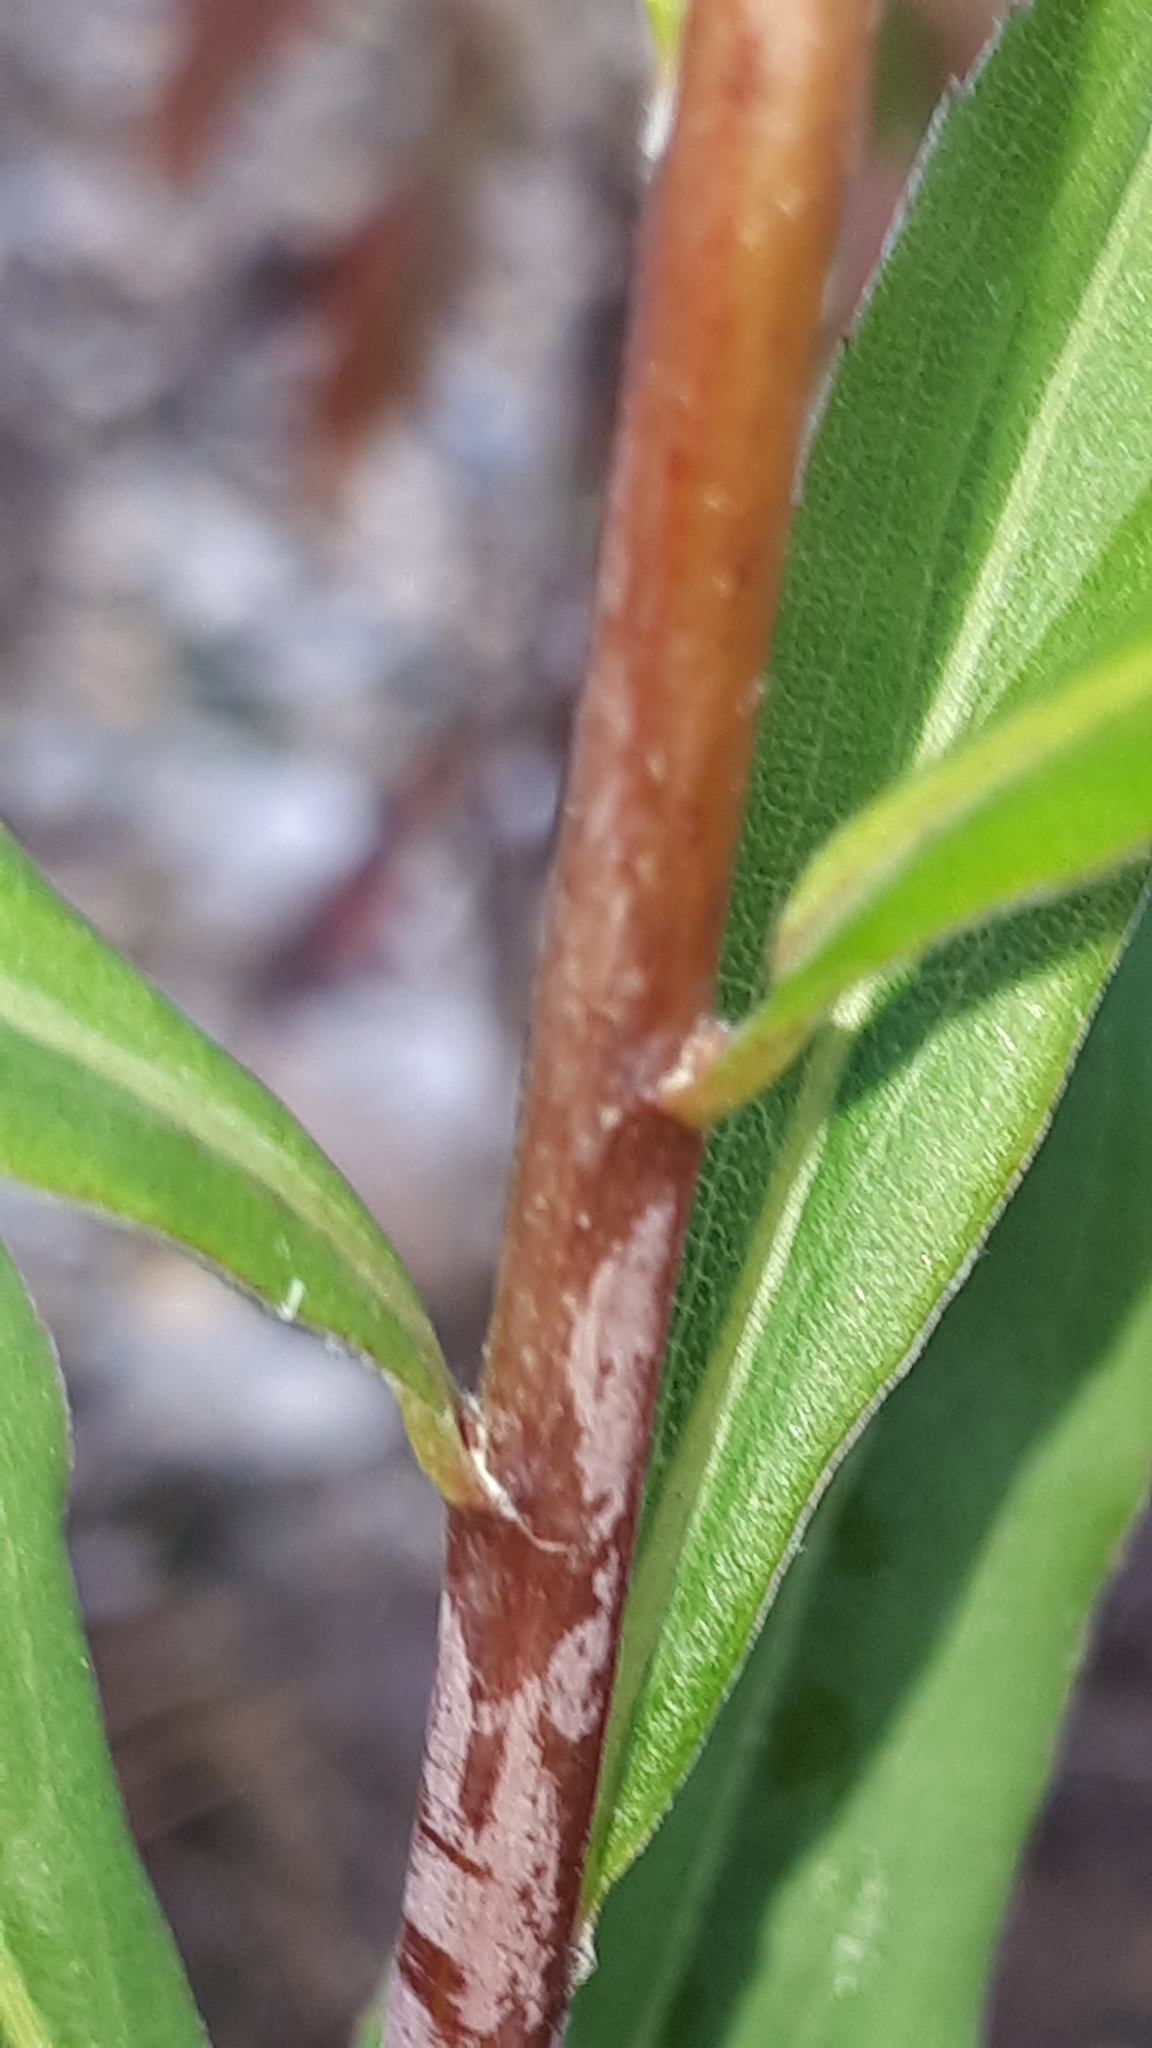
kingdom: Plantae
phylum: Tracheophyta
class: Magnoliopsida
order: Asterales
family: Asteraceae
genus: Solidago
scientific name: Solidago gigantea
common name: Giant goldenrod
